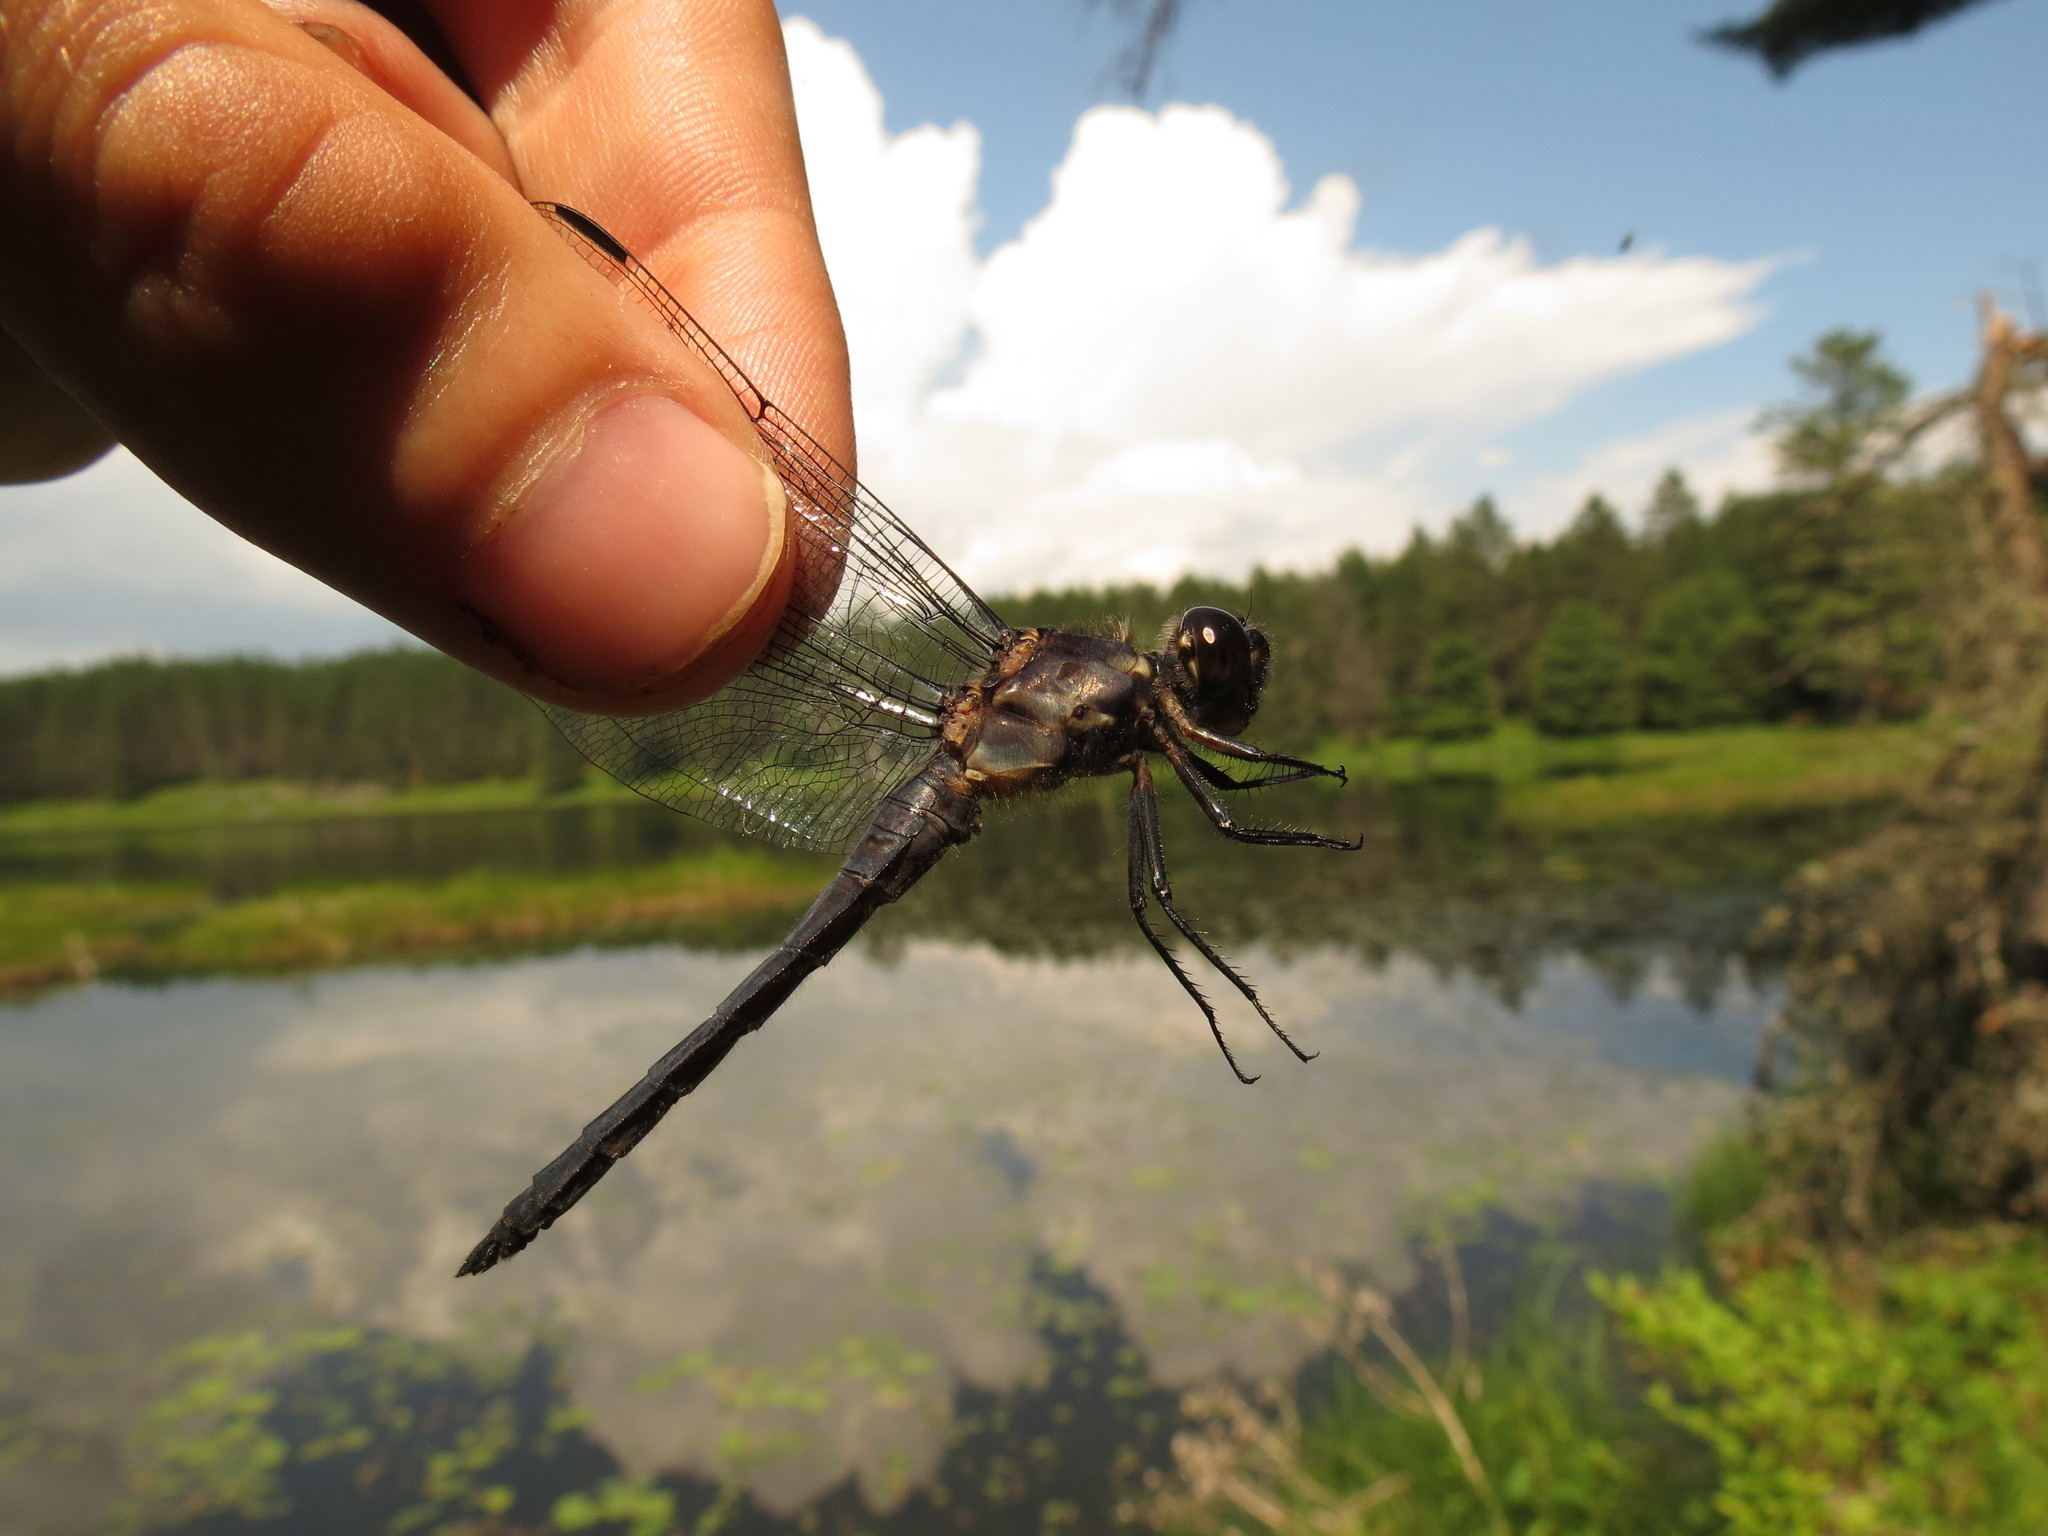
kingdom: Animalia
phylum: Arthropoda
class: Insecta
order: Odonata
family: Libellulidae
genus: Libellula
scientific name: Libellula incesta
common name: Slaty skimmer
